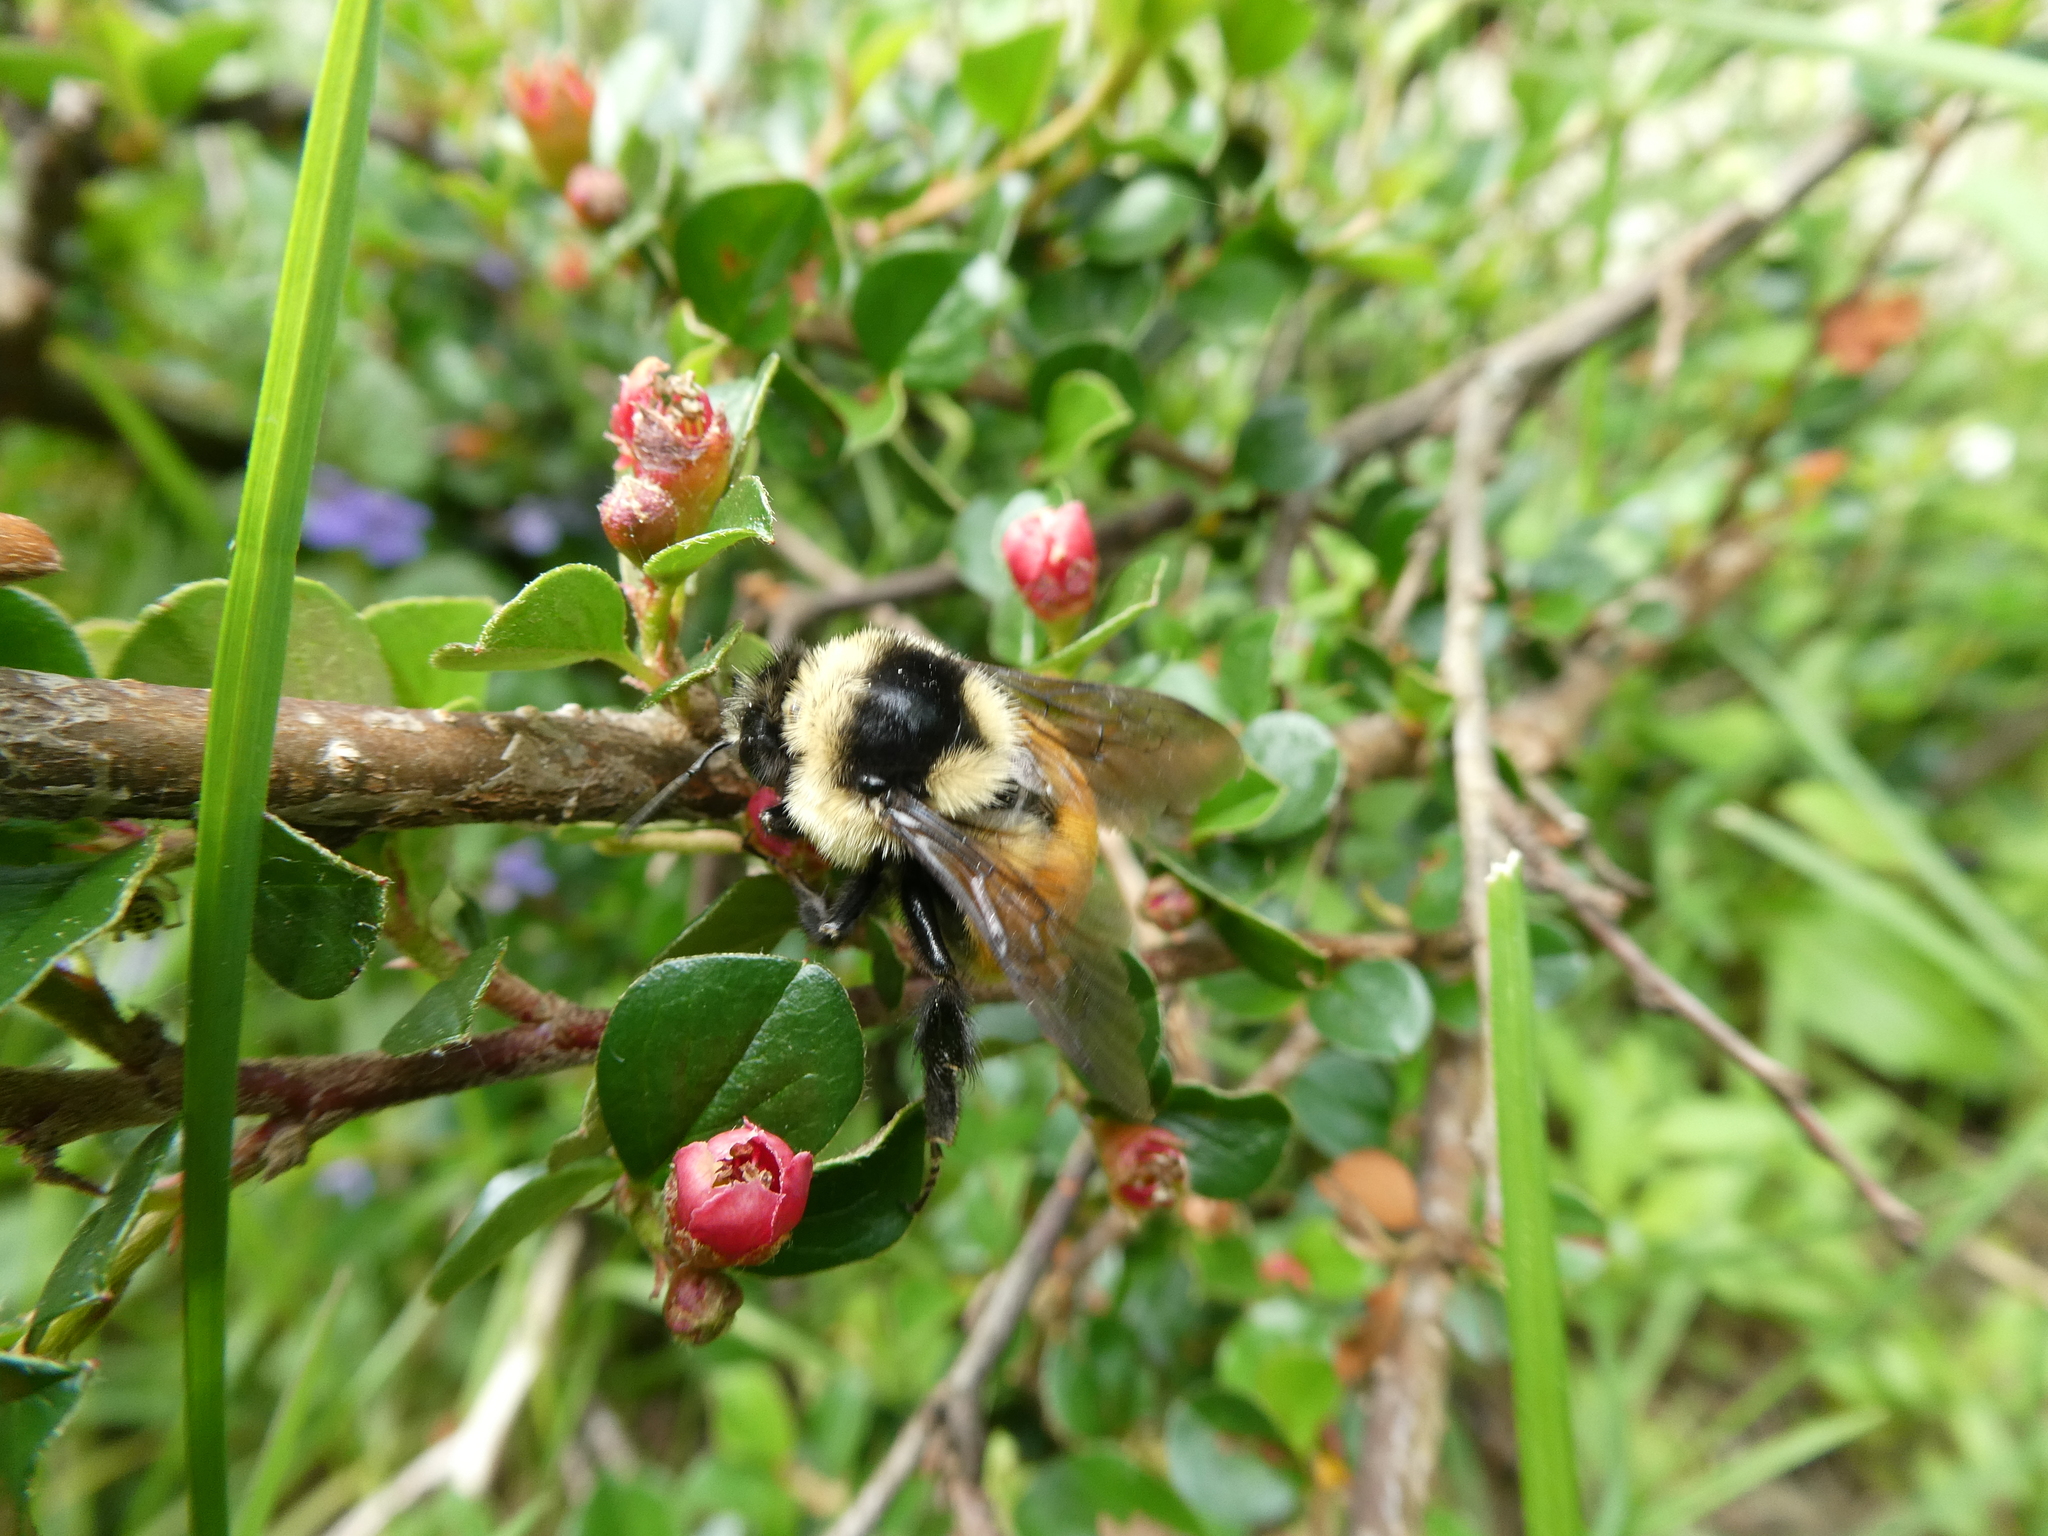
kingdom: Animalia
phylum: Arthropoda
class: Insecta
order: Hymenoptera
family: Apidae
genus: Bombus
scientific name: Bombus ternarius
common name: Tri-colored bumble bee
